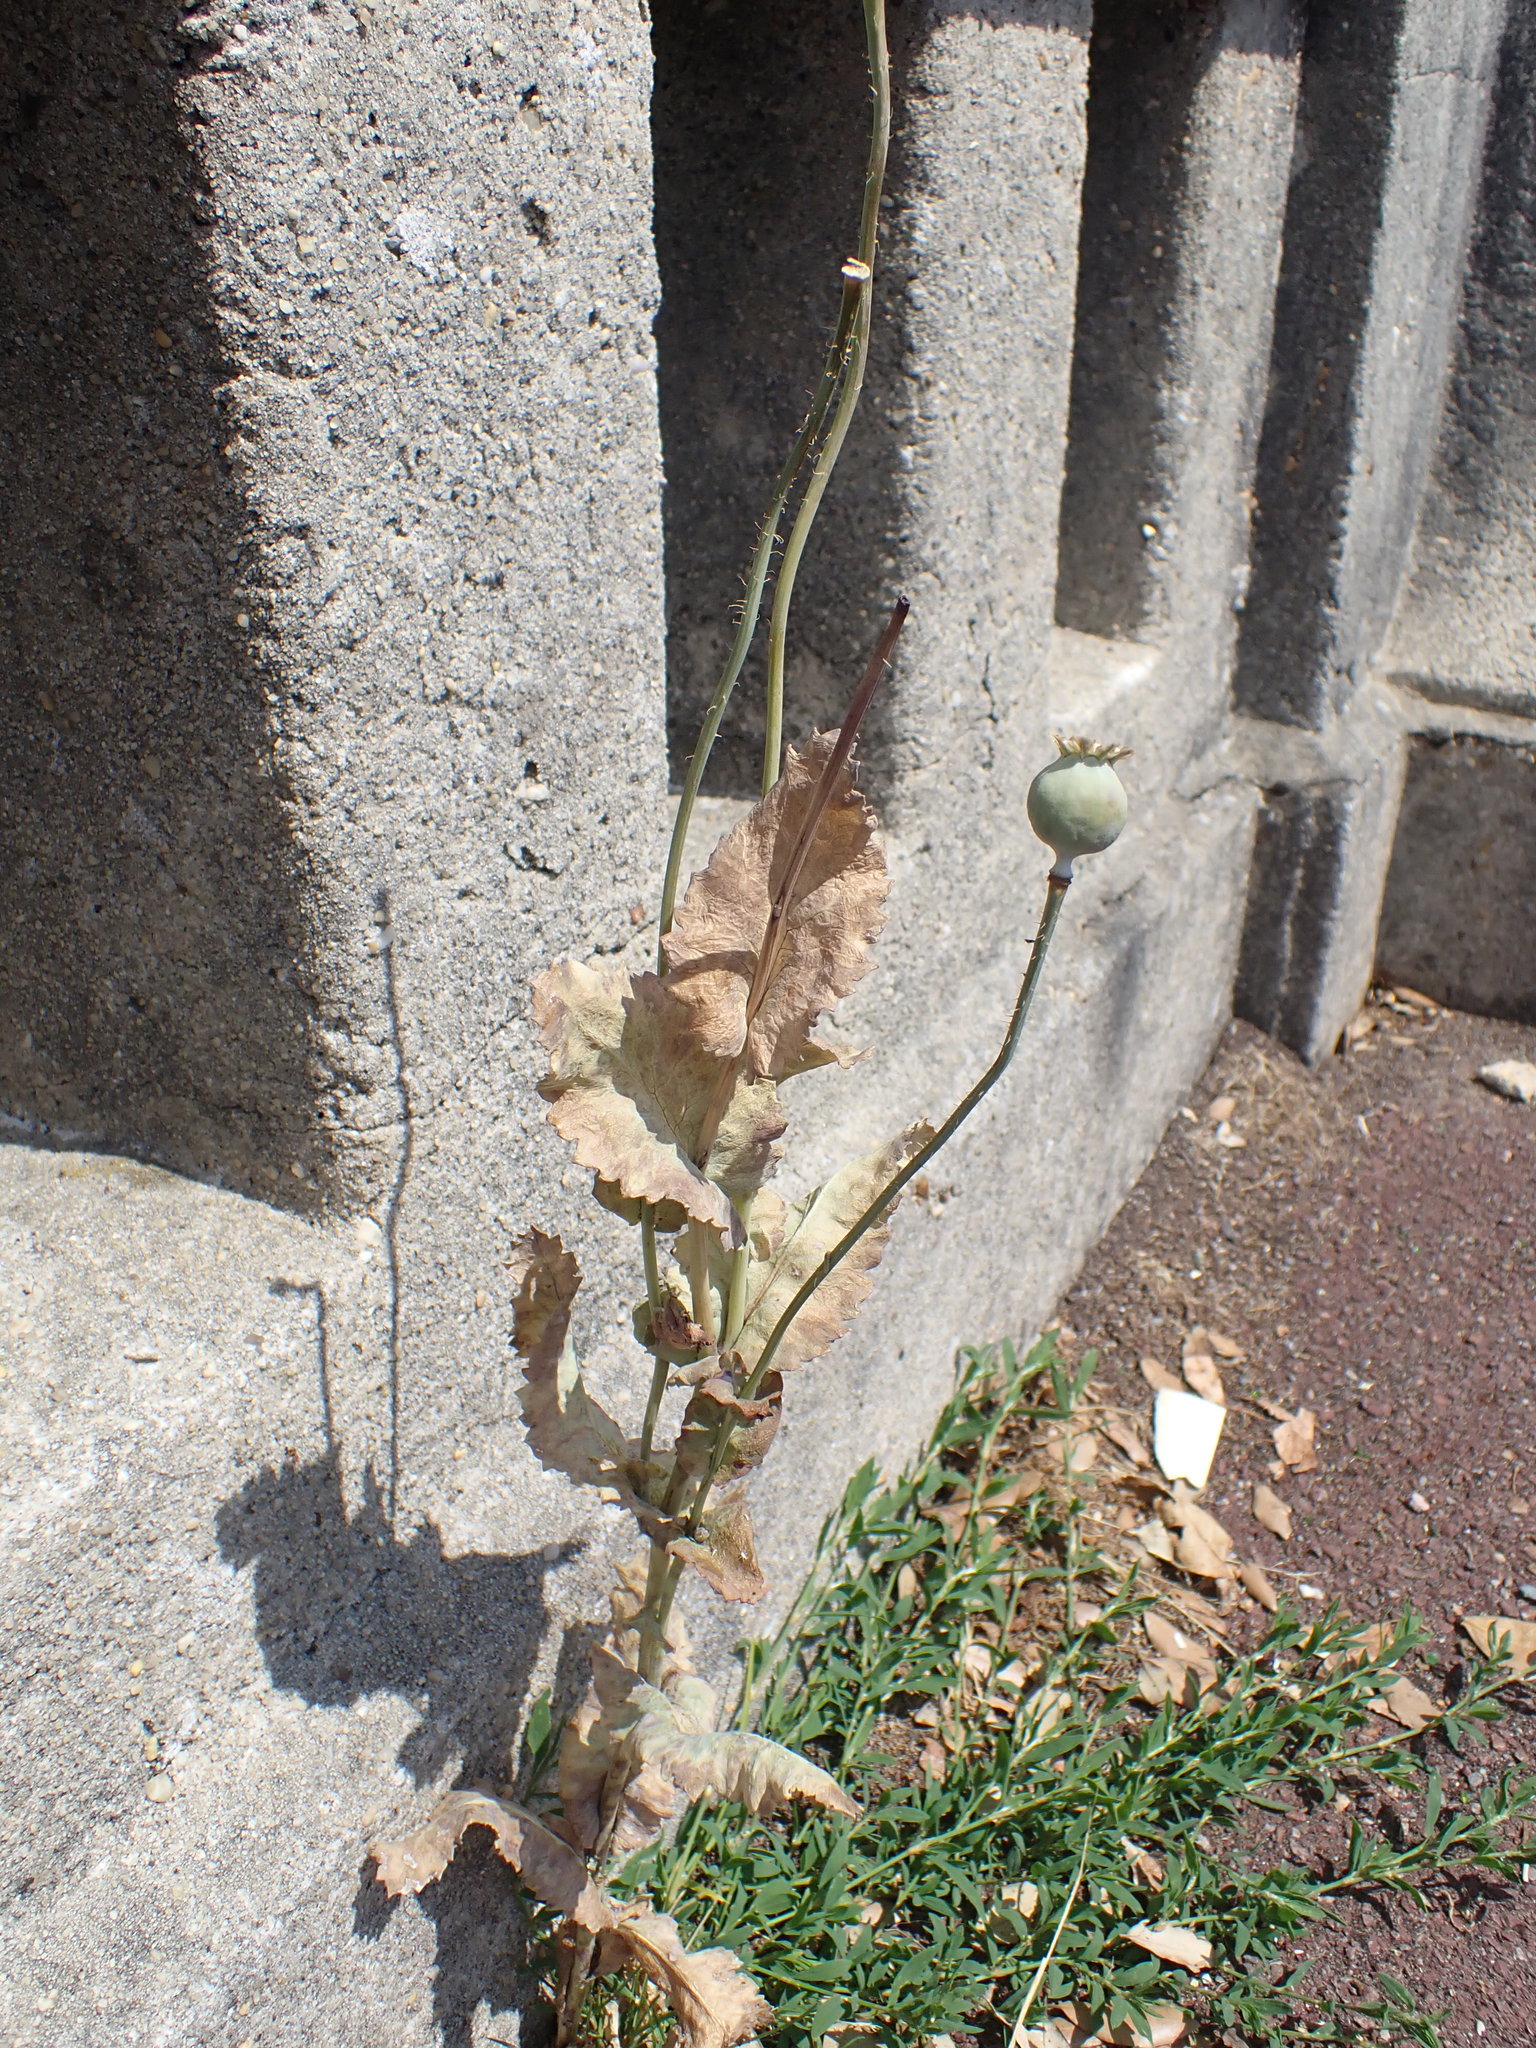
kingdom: Plantae
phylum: Tracheophyta
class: Magnoliopsida
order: Ranunculales
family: Papaveraceae
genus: Papaver
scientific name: Papaver somniferum
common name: Opium poppy
